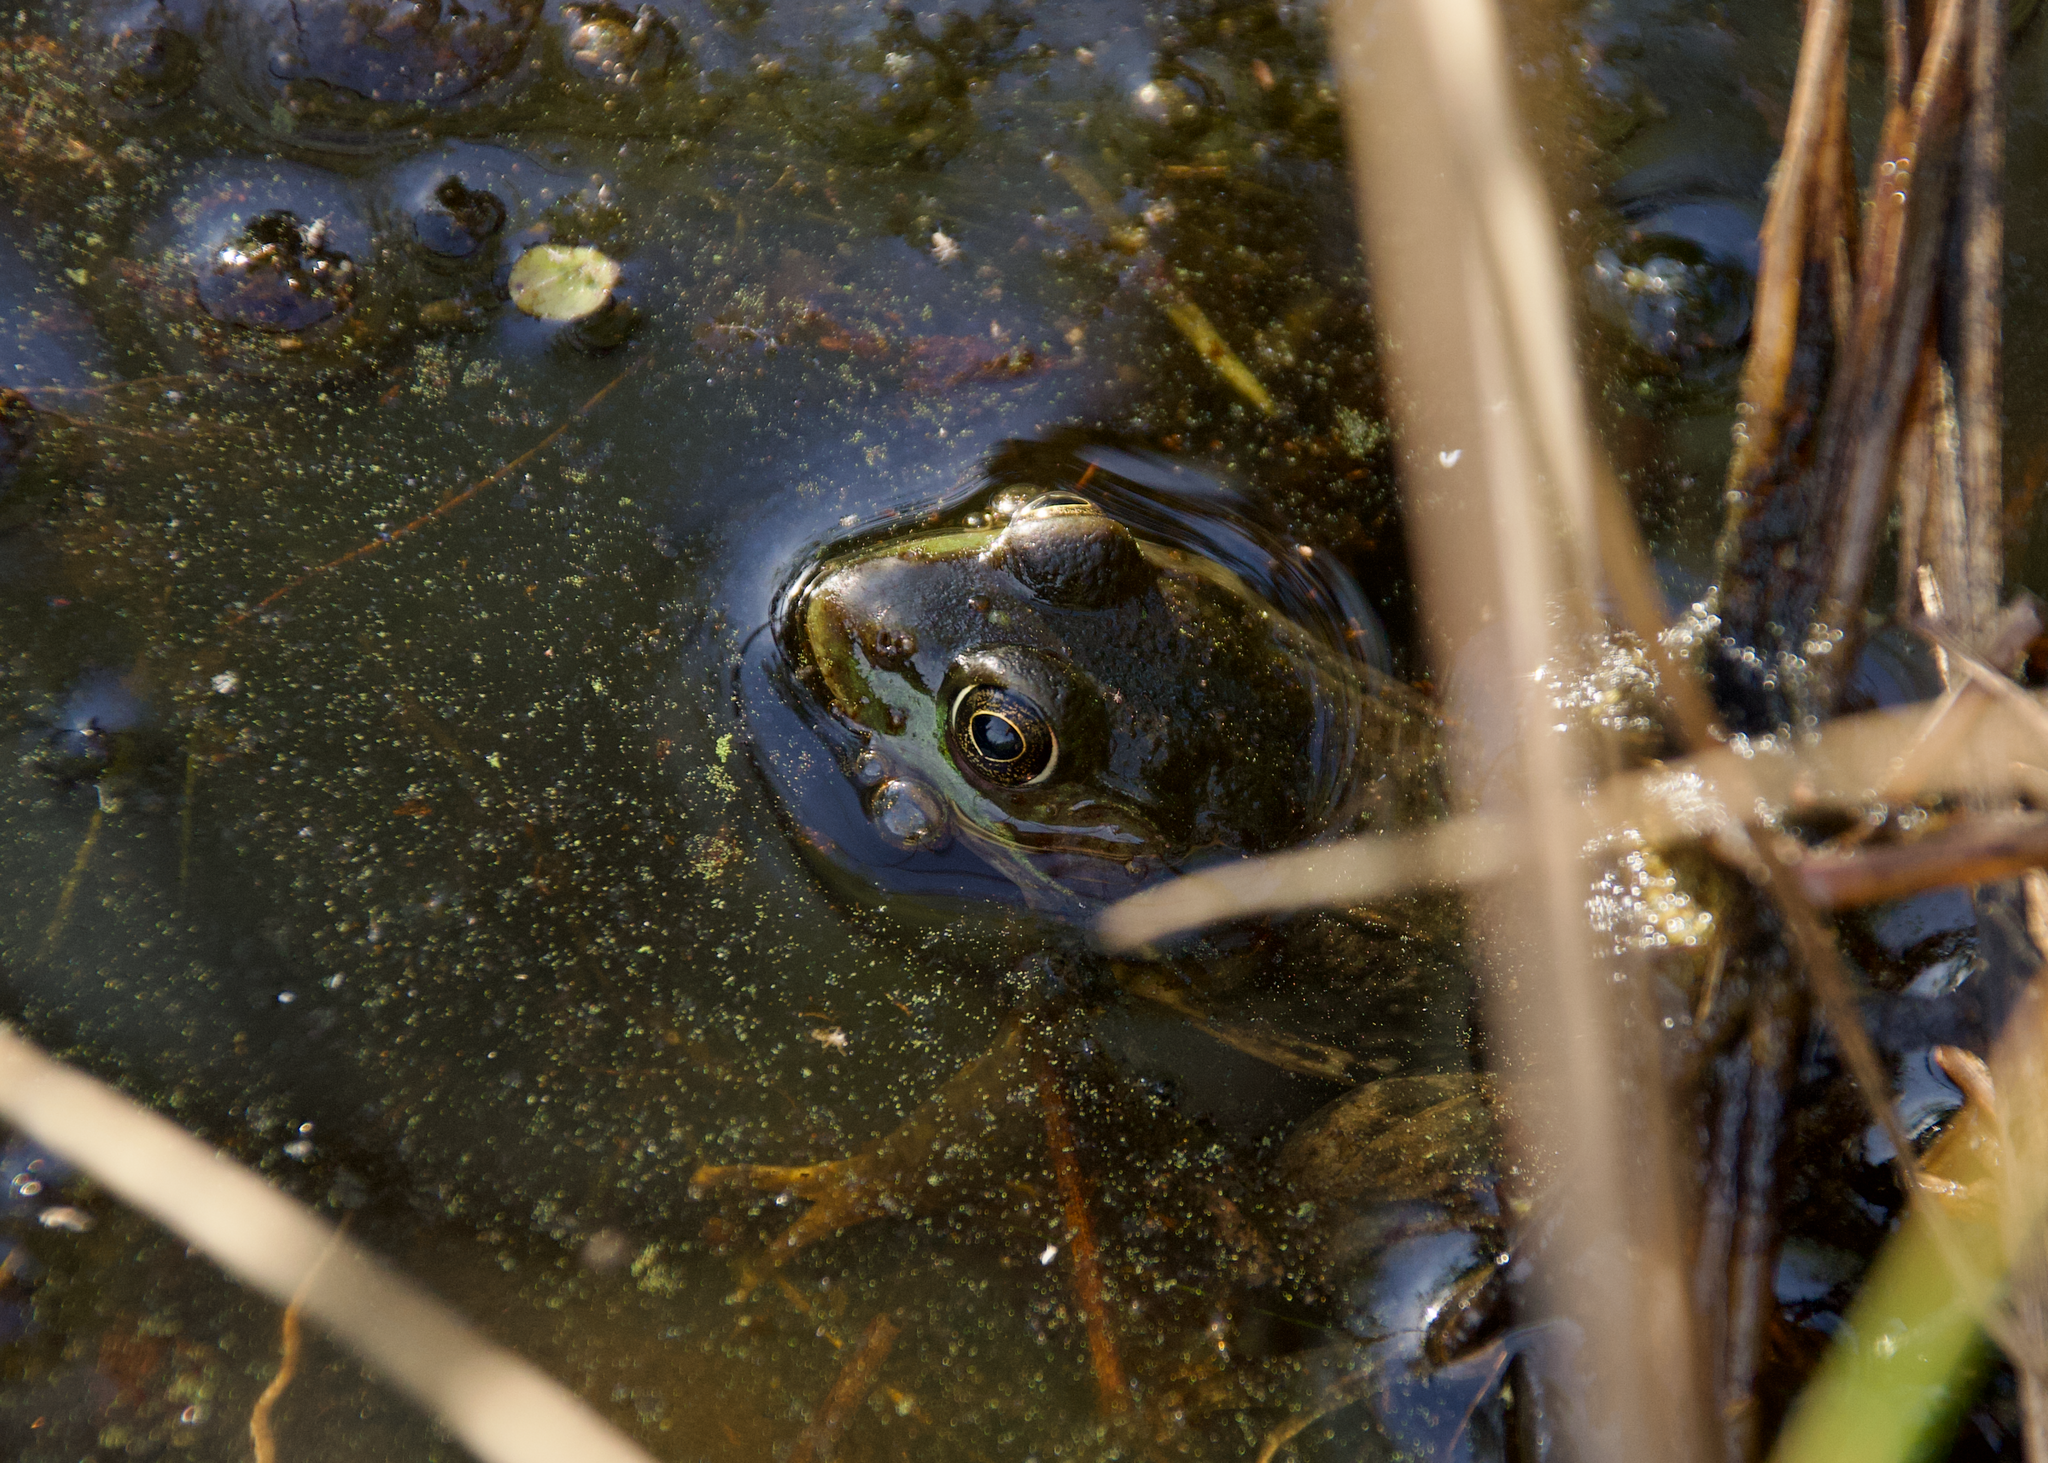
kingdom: Animalia
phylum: Chordata
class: Amphibia
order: Anura
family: Ranidae
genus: Lithobates
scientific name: Lithobates clamitans
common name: Green frog
